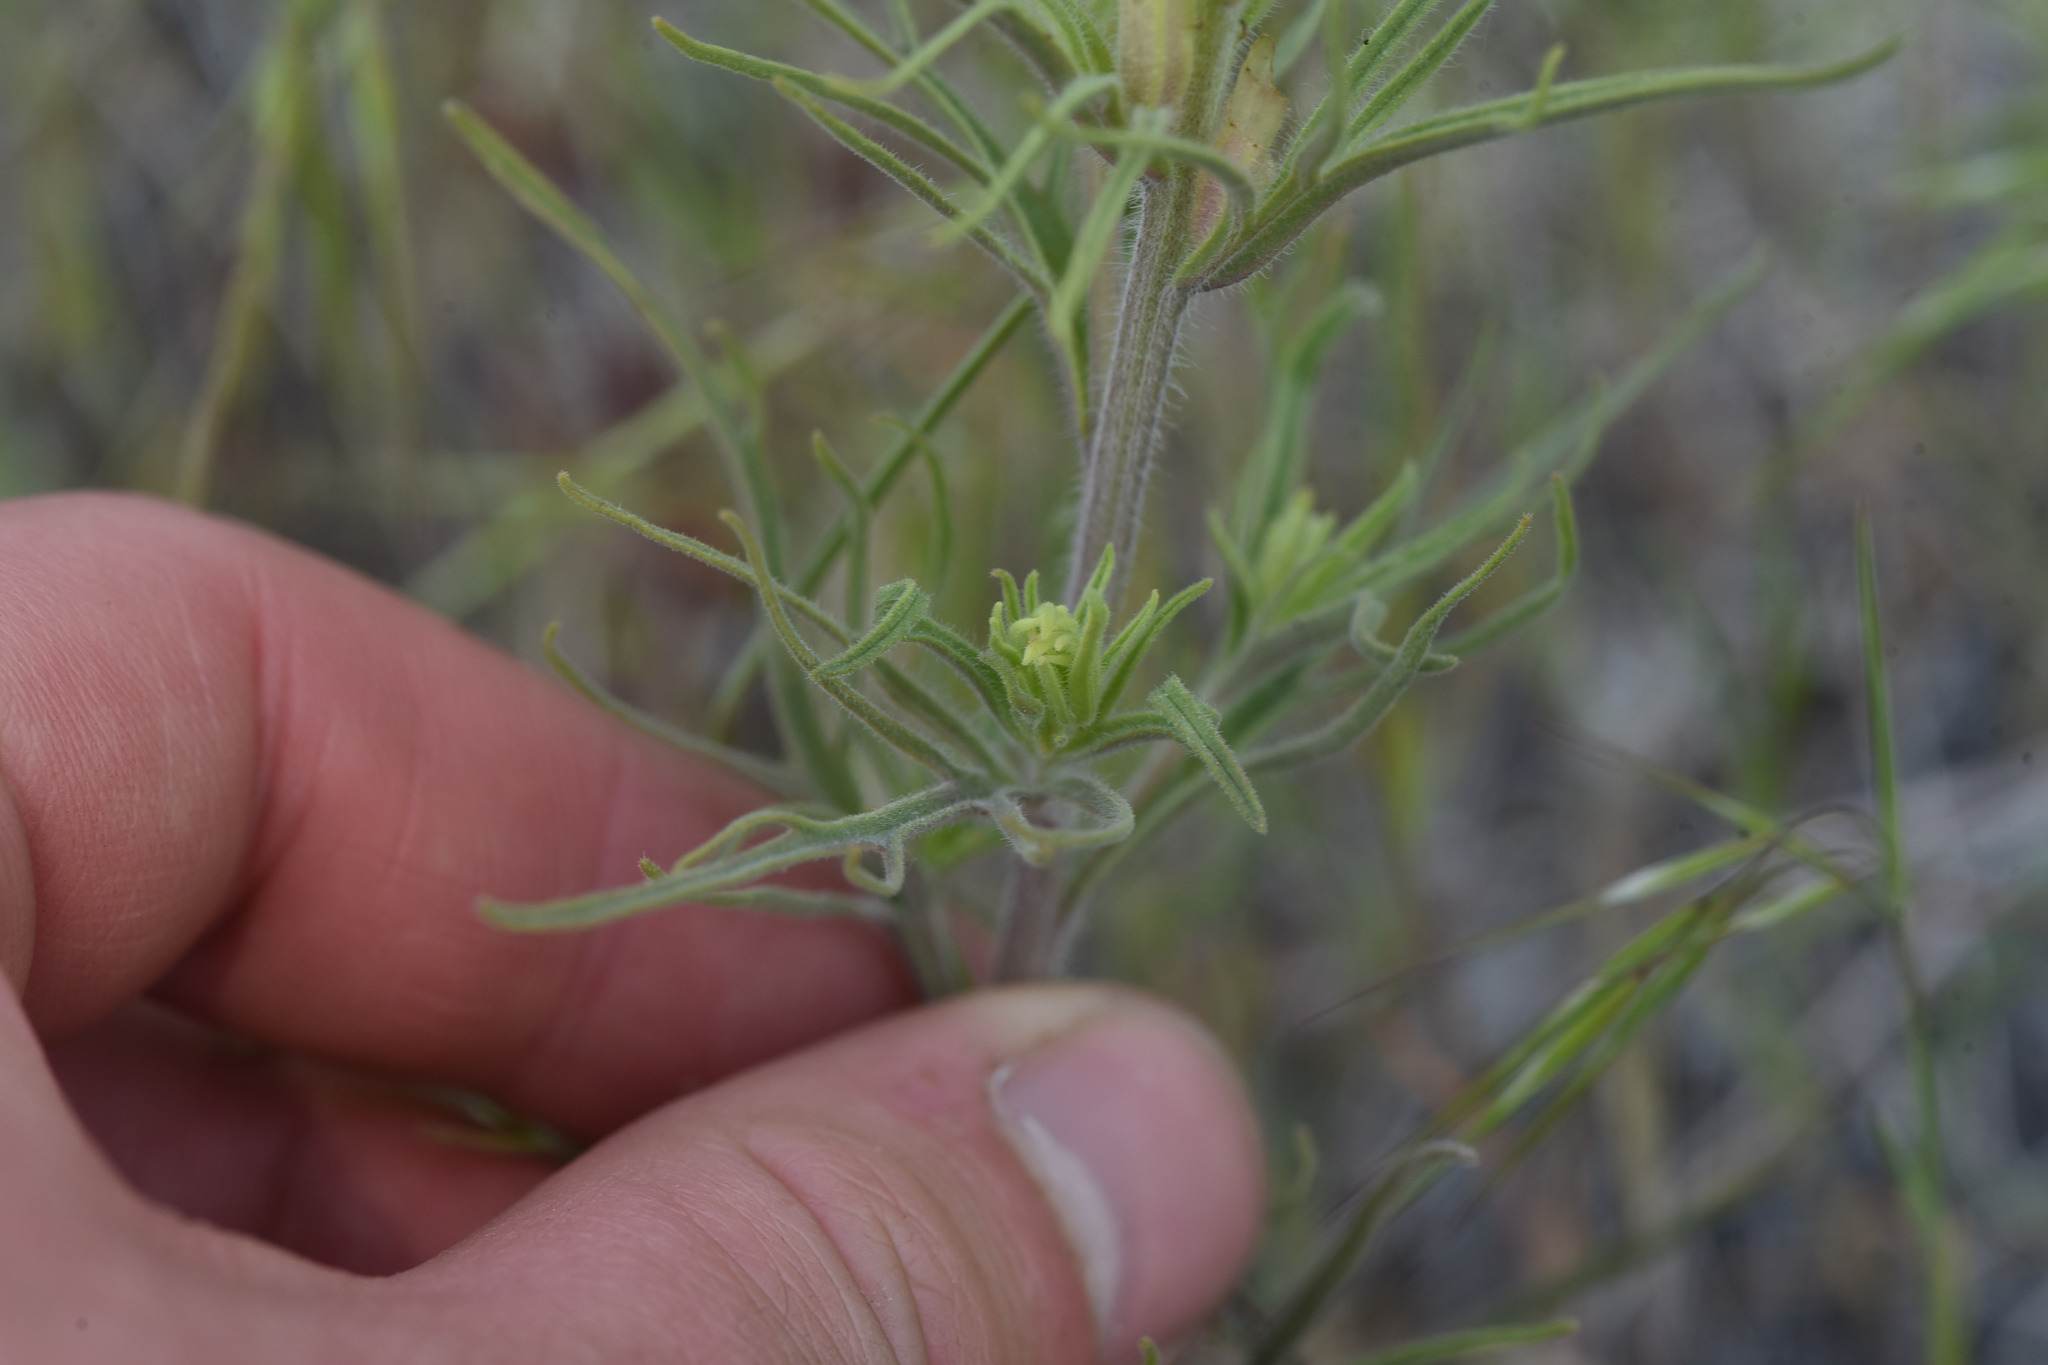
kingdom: Plantae
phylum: Tracheophyta
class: Magnoliopsida
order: Lamiales
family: Orobanchaceae
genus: Castilleja
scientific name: Castilleja thompsonii
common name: Thompson's paintbrush
